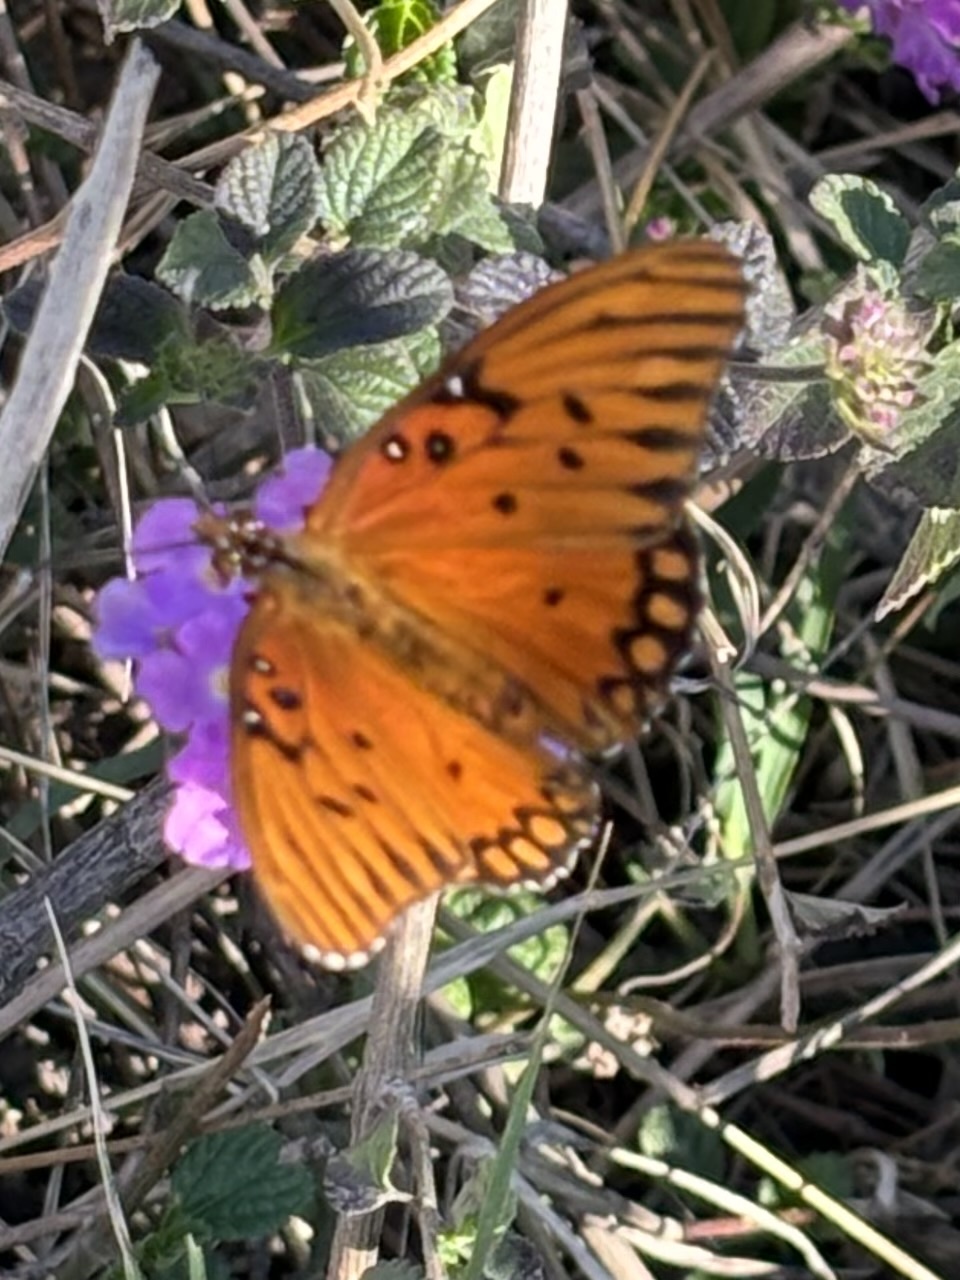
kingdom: Animalia
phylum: Arthropoda
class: Insecta
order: Lepidoptera
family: Nymphalidae
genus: Dione
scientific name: Dione vanillae
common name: Gulf fritillary
